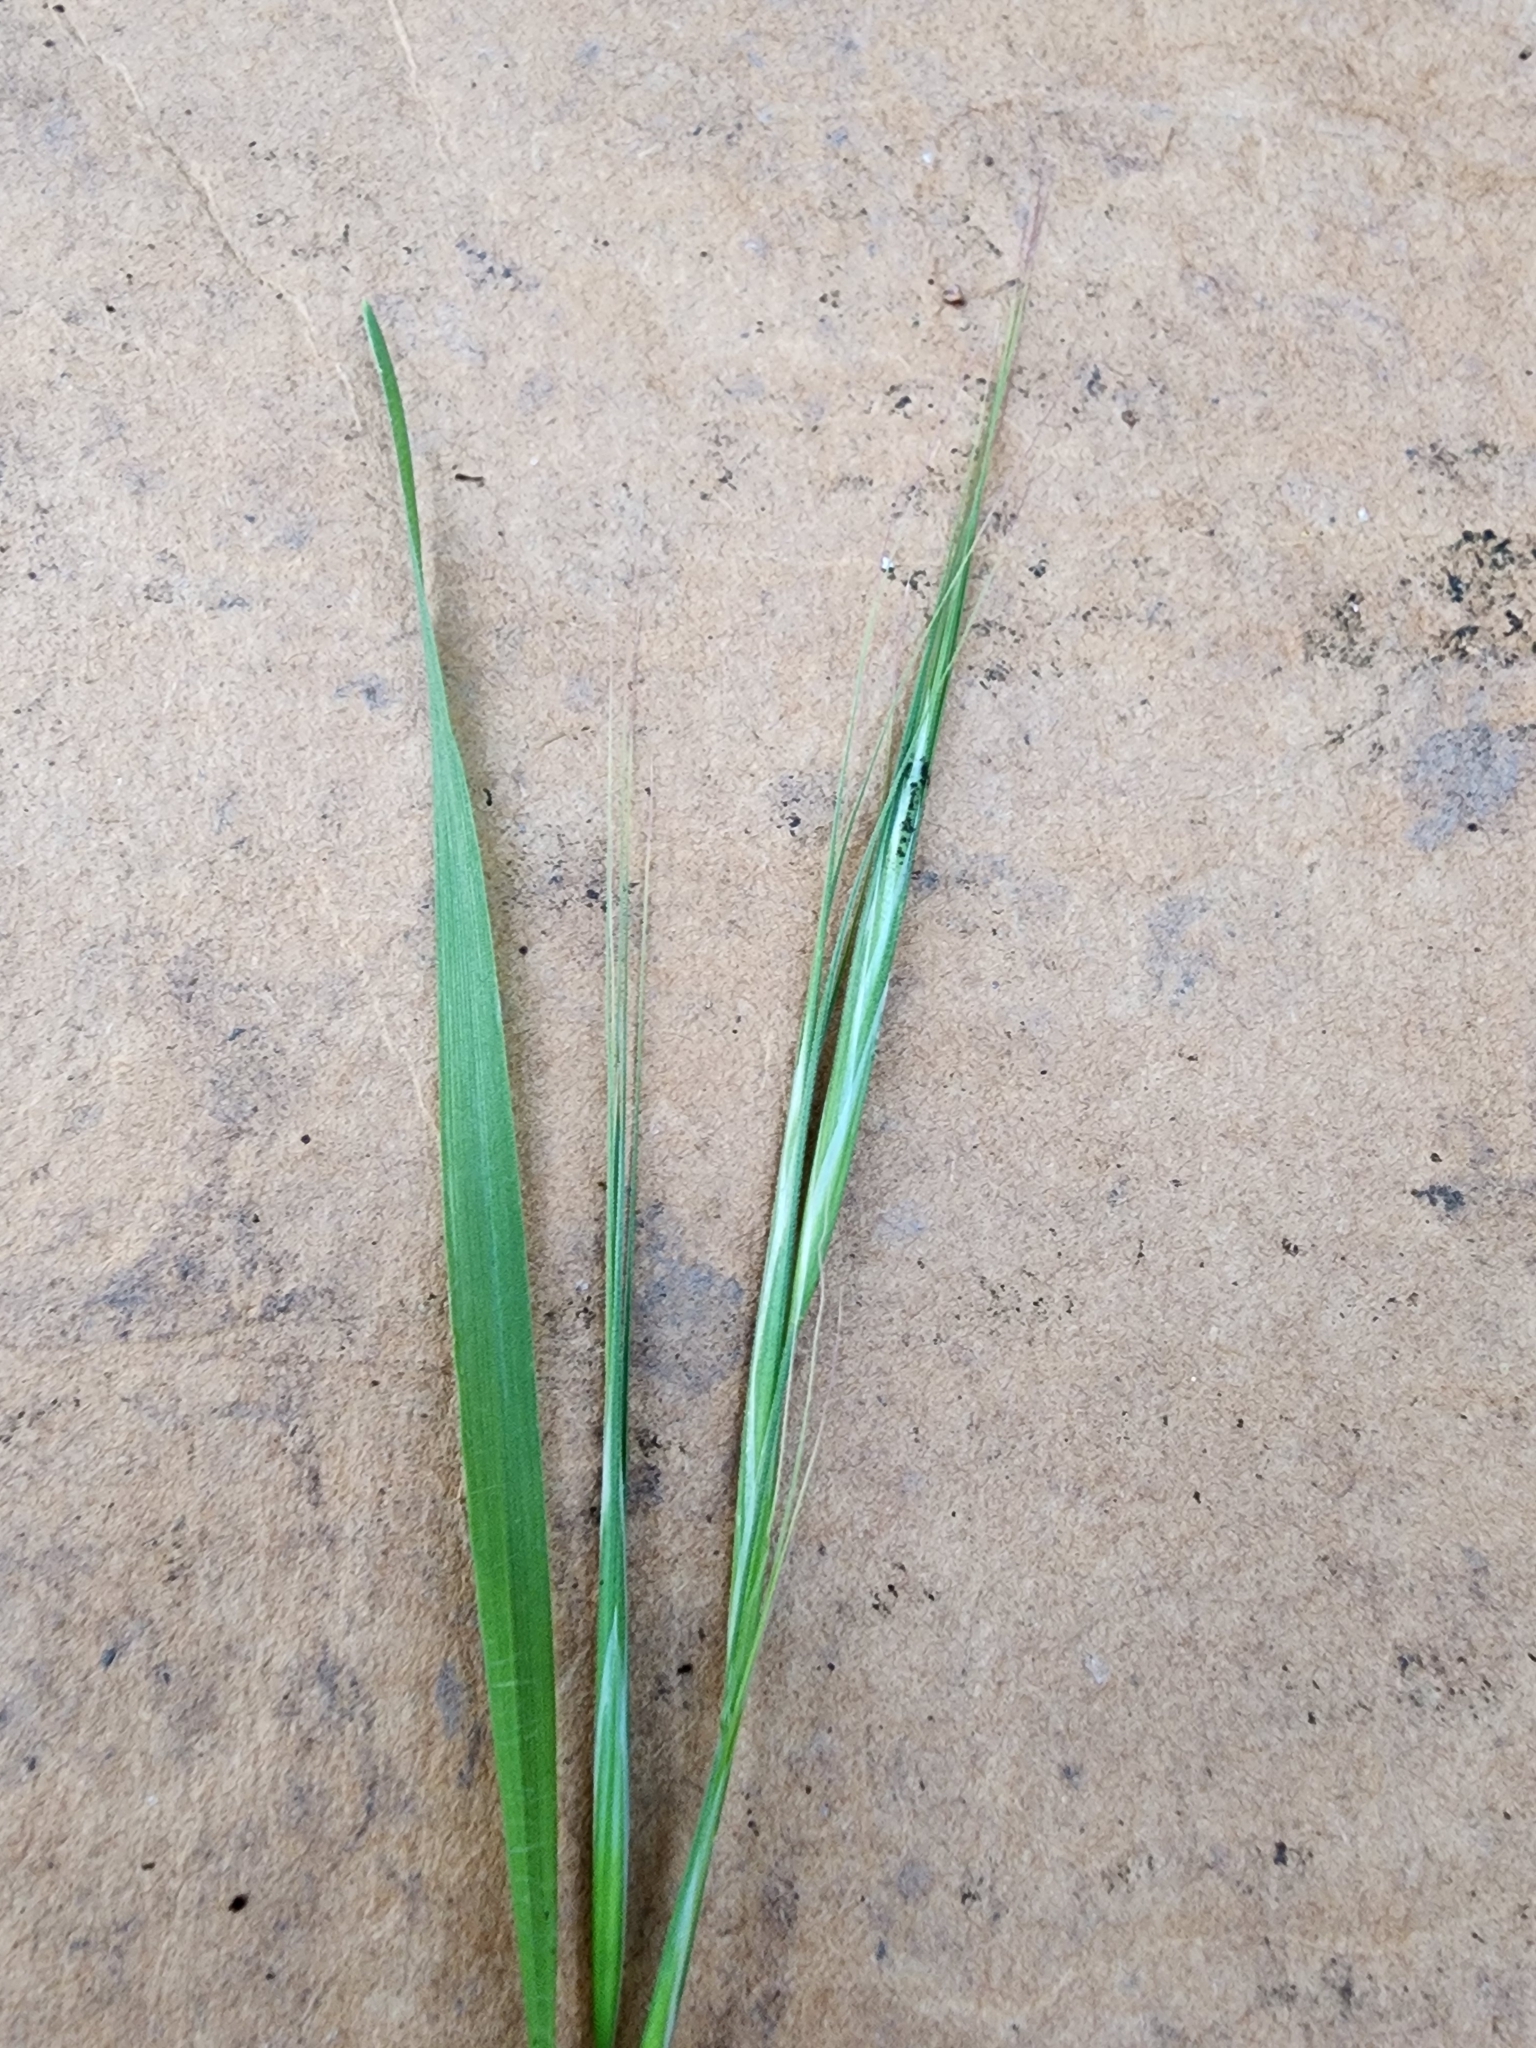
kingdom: Plantae
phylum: Tracheophyta
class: Liliopsida
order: Poales
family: Poaceae
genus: Bromus
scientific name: Bromus diandrus
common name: Ripgut brome
